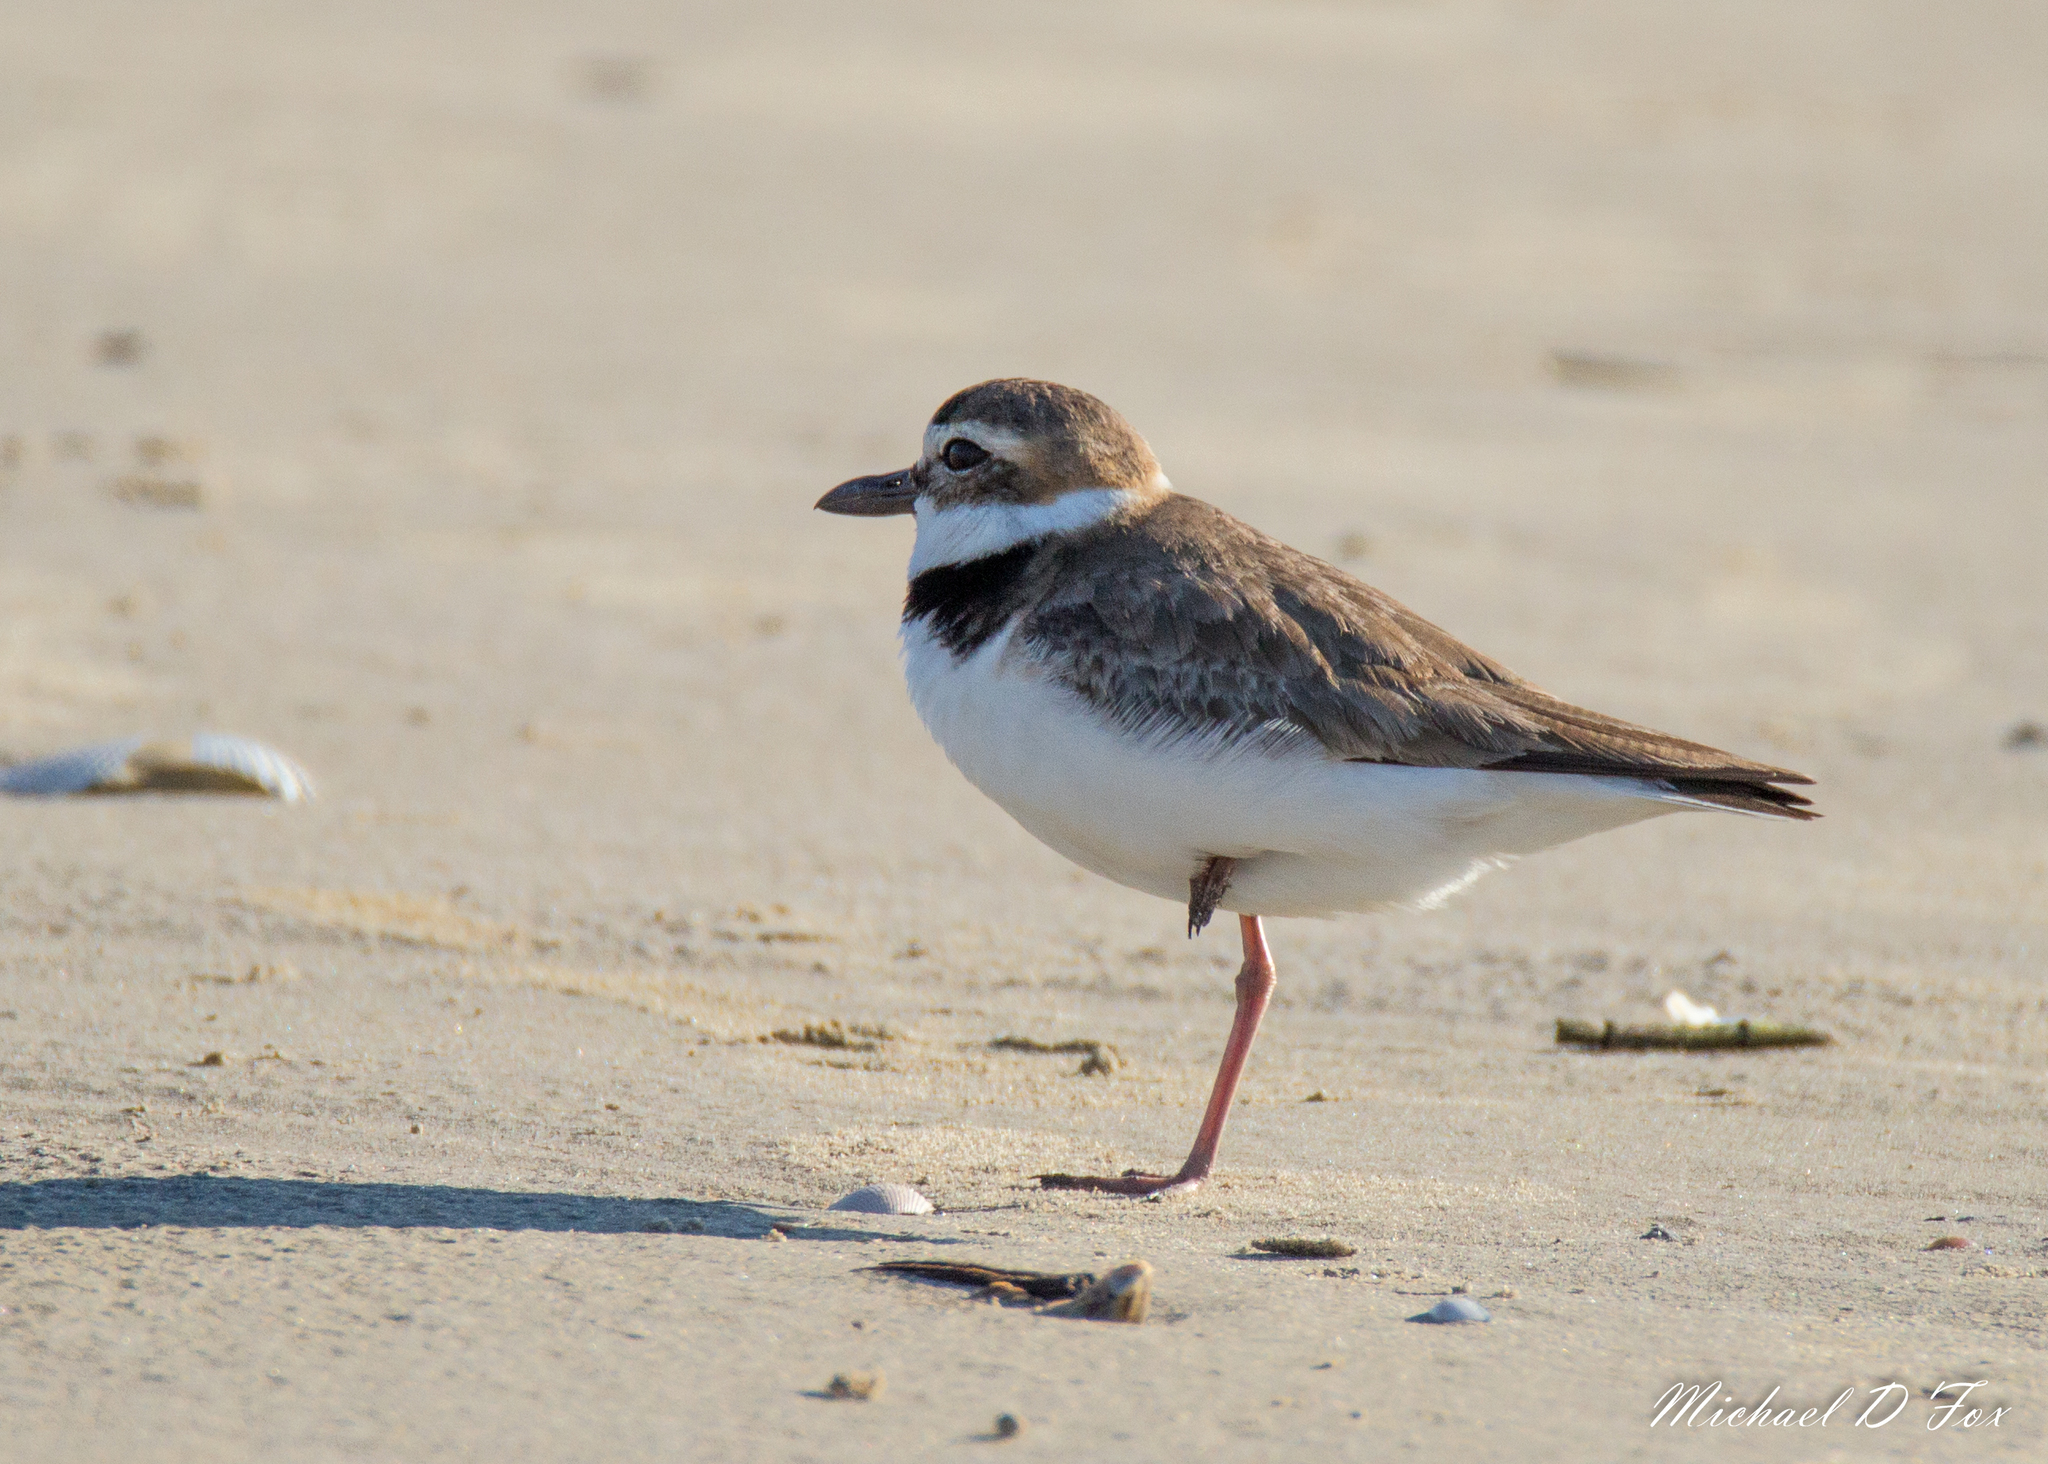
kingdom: Animalia
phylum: Chordata
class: Aves
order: Charadriiformes
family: Charadriidae
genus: Anarhynchus
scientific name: Anarhynchus
